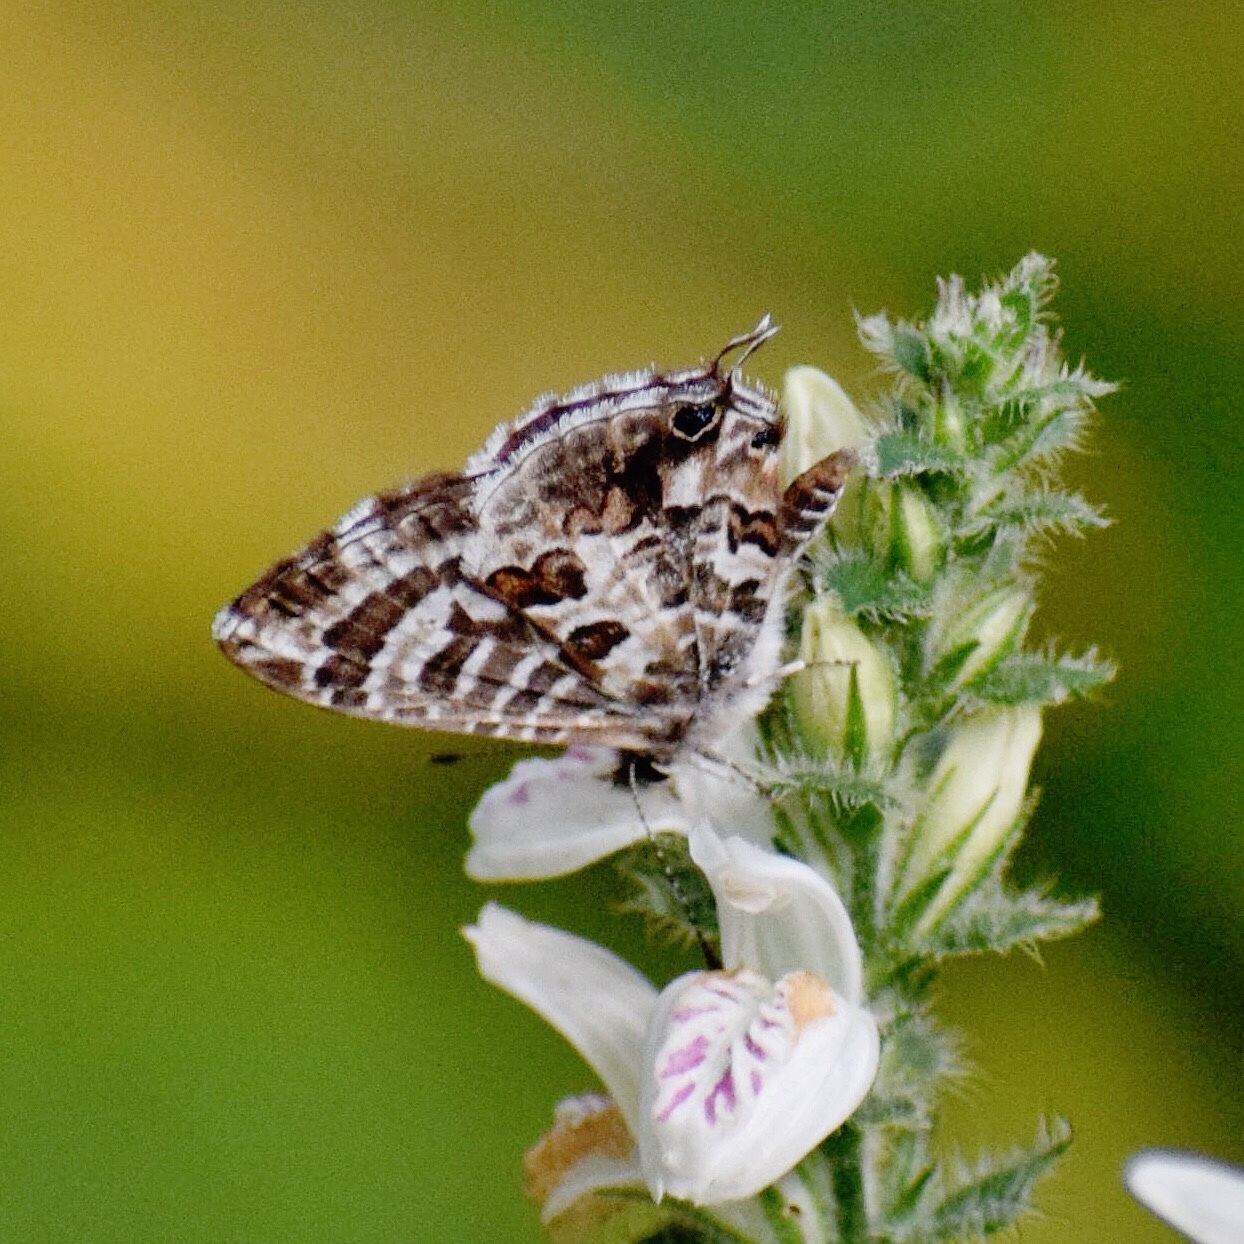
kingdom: Animalia
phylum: Arthropoda
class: Insecta
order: Lepidoptera
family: Lycaenidae
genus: Cacyreus
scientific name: Cacyreus lingeus
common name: Bush bronze
